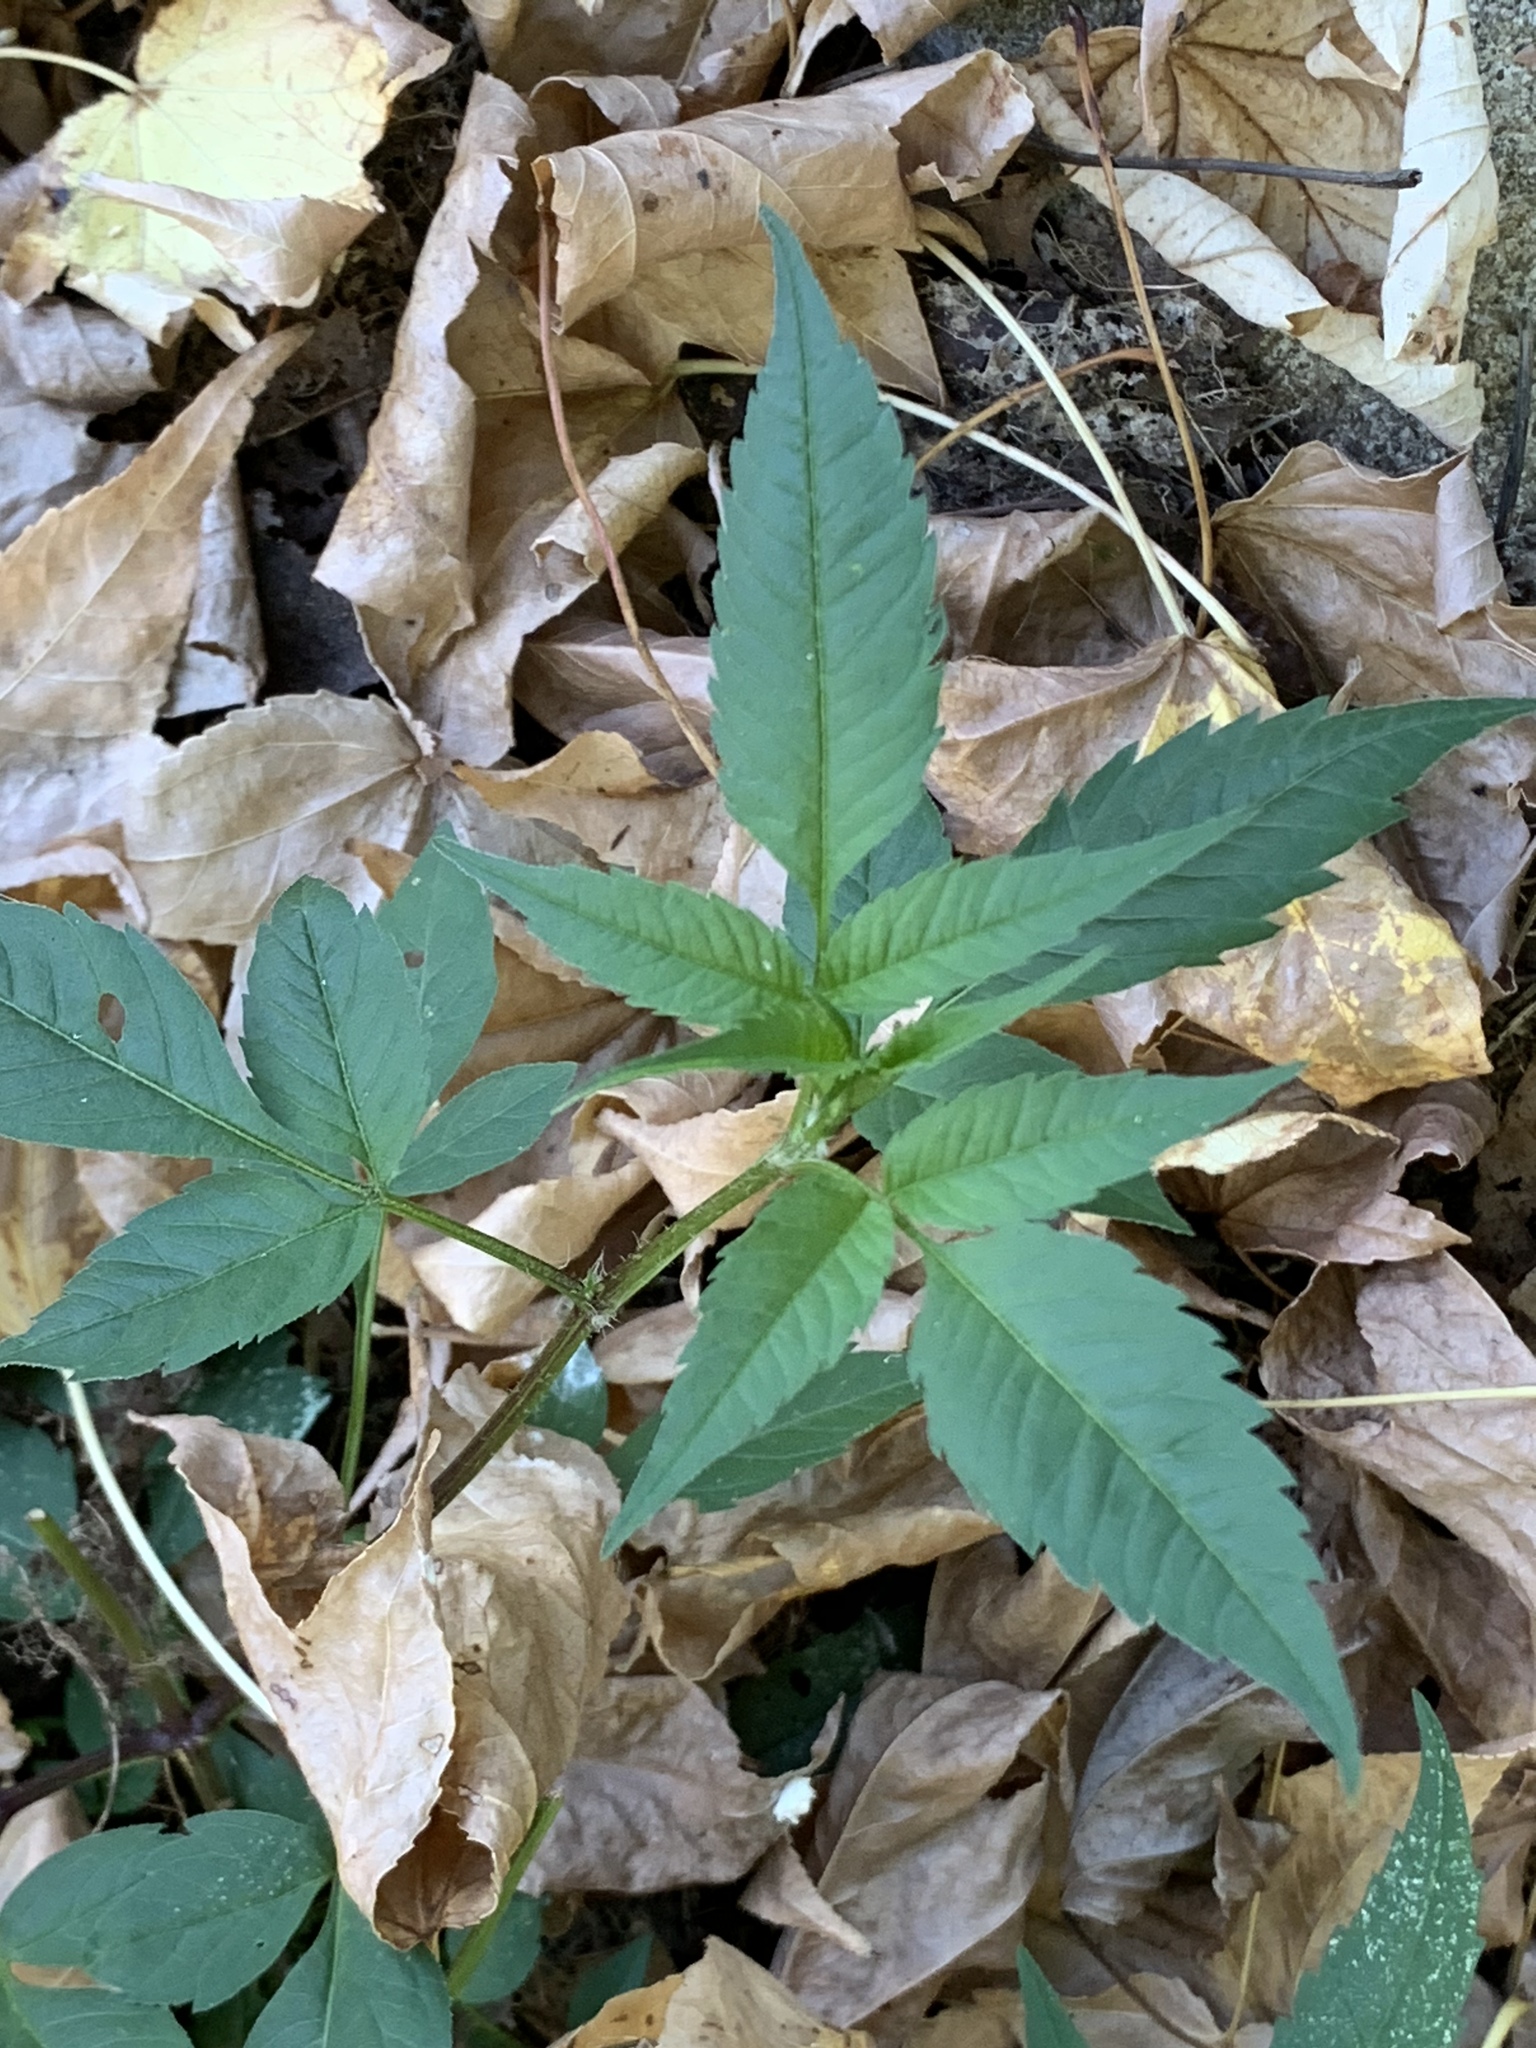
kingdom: Plantae
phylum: Tracheophyta
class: Magnoliopsida
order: Asterales
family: Asteraceae
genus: Bidens
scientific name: Bidens frondosa
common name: Beggarticks
